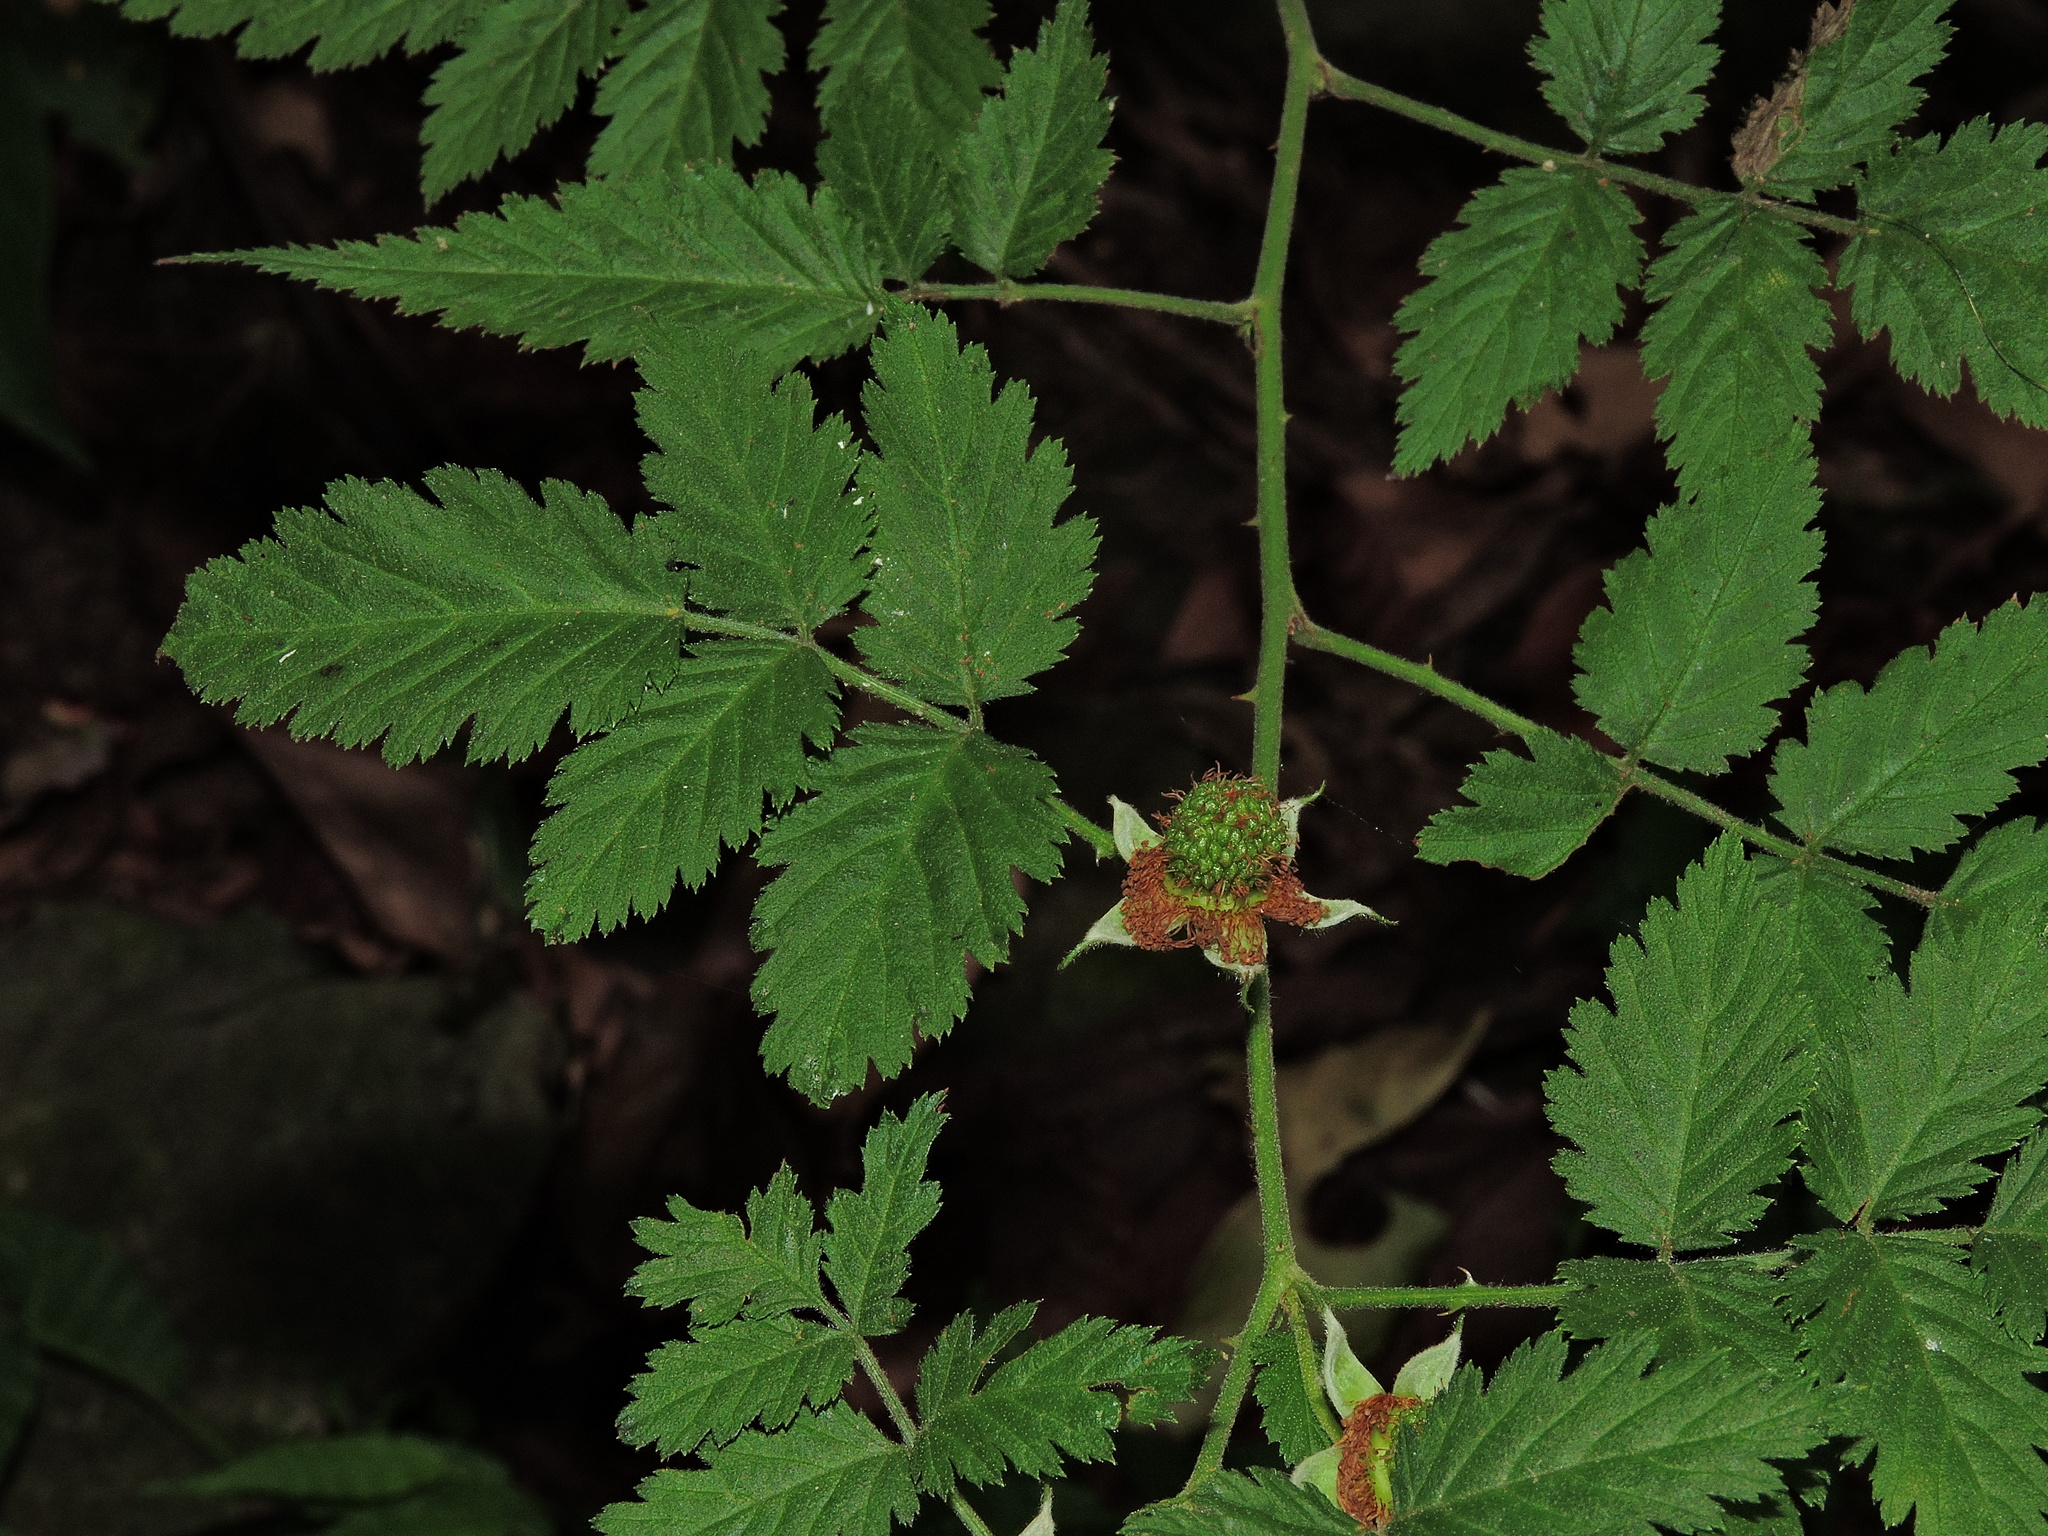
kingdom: Plantae
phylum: Tracheophyta
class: Magnoliopsida
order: Rosales
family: Rosaceae
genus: Rubus
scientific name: Rubus rosifolius
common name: Roseleaf raspberry
